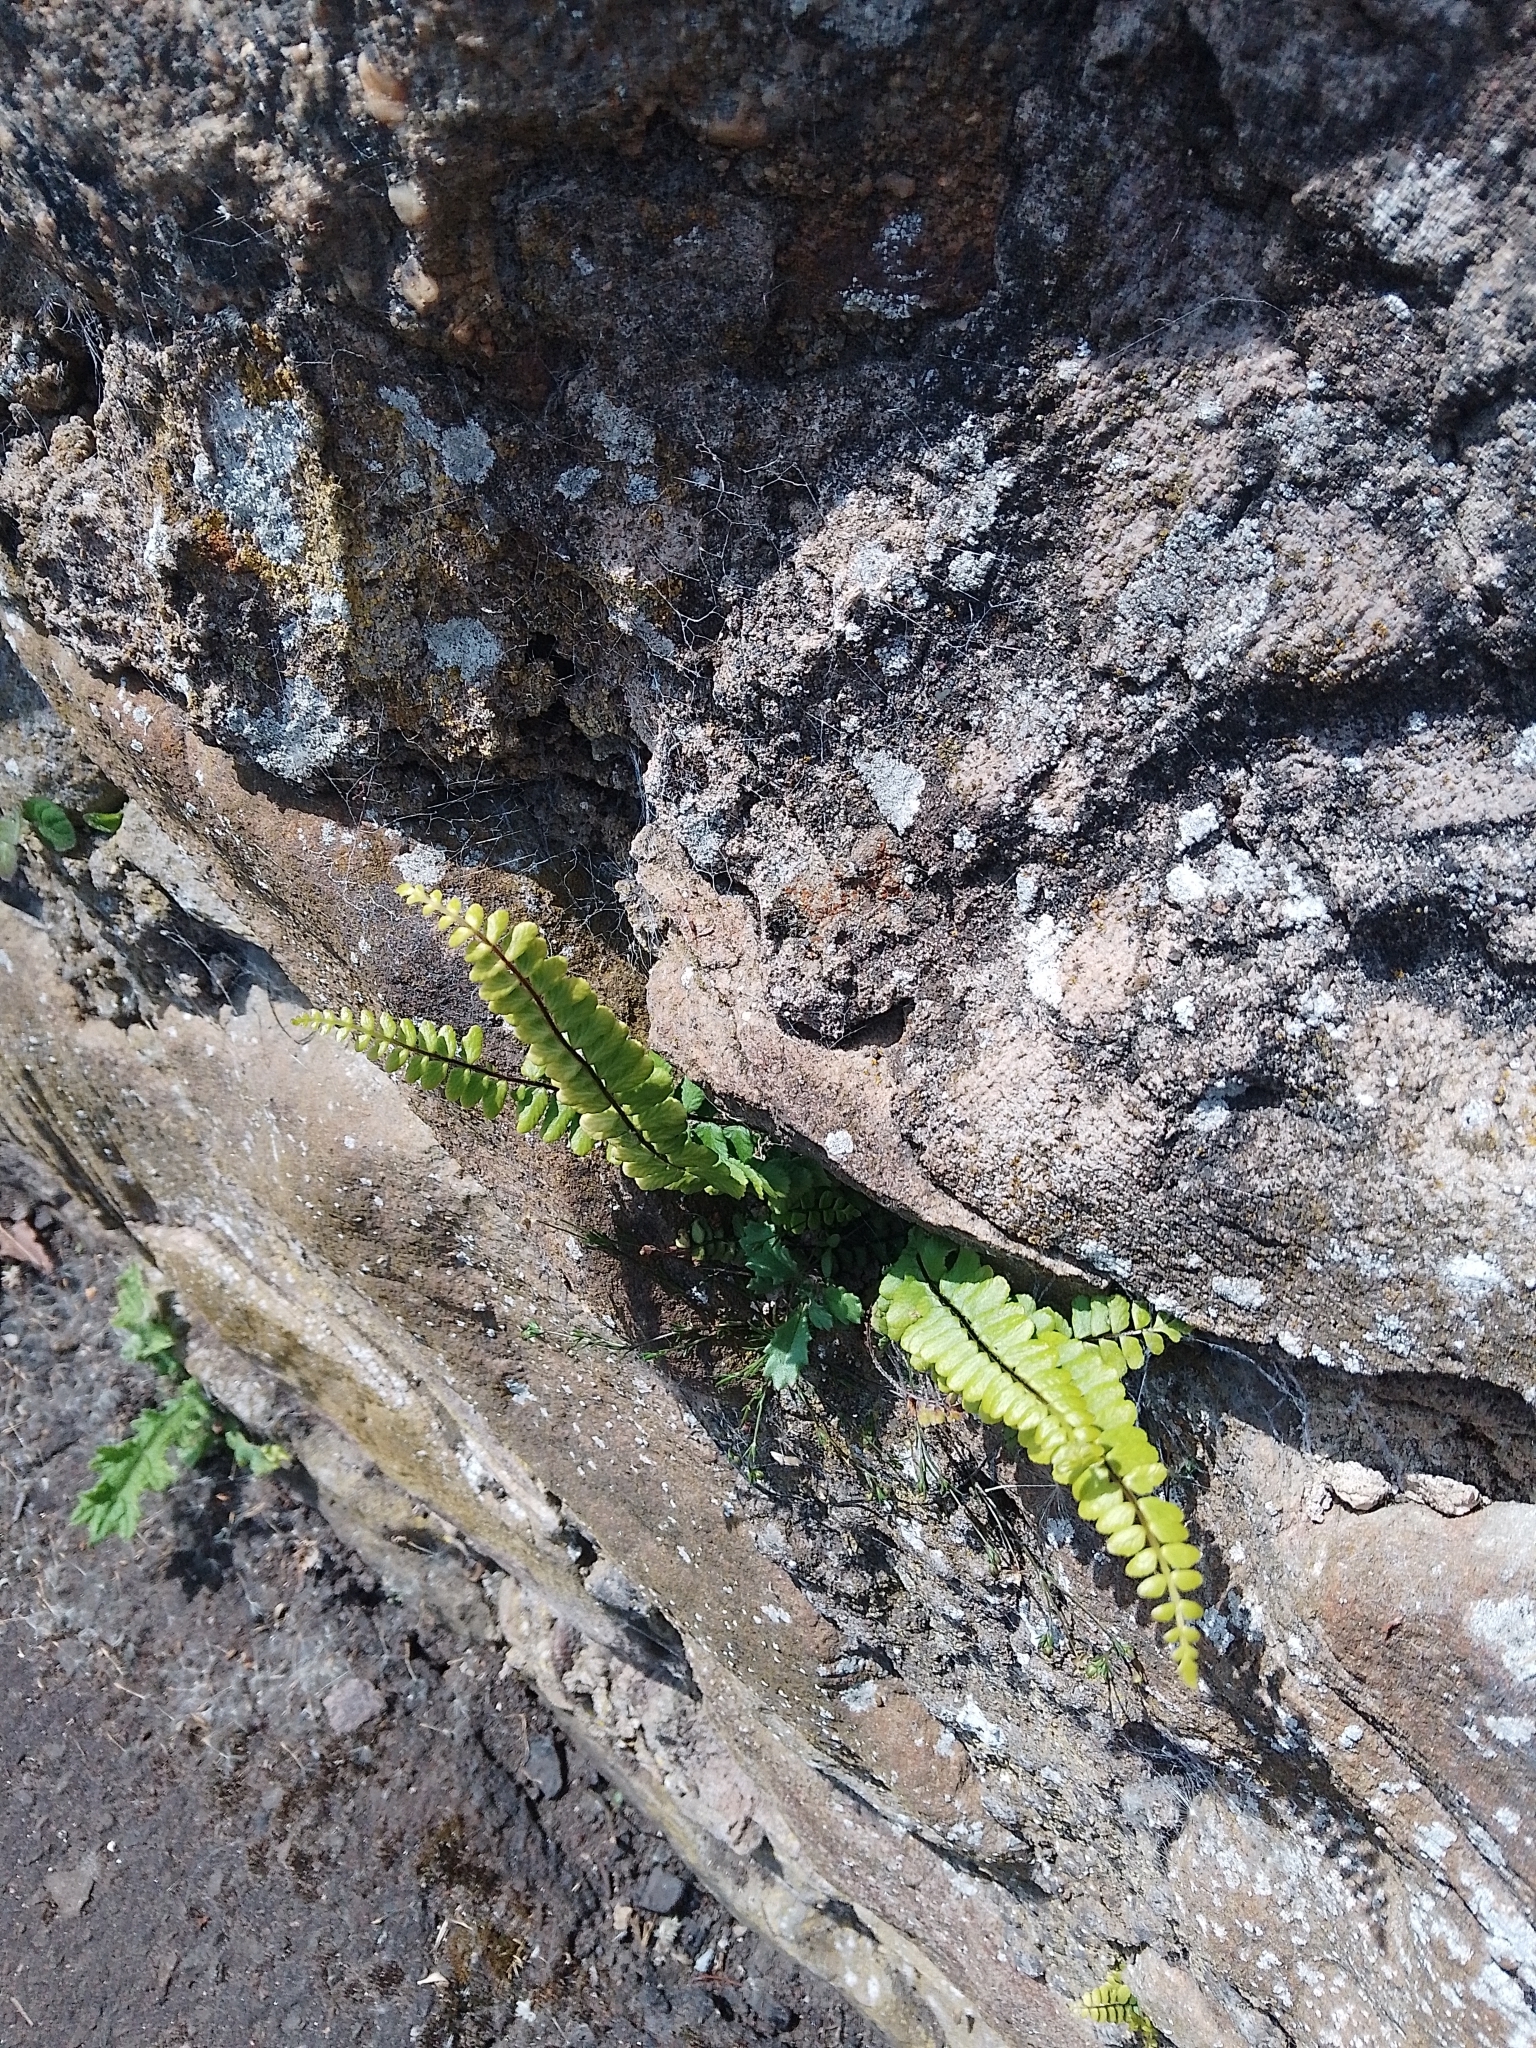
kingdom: Plantae
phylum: Tracheophyta
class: Polypodiopsida
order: Polypodiales
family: Aspleniaceae
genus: Asplenium
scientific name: Asplenium trichomanes
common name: Maidenhair spleenwort
